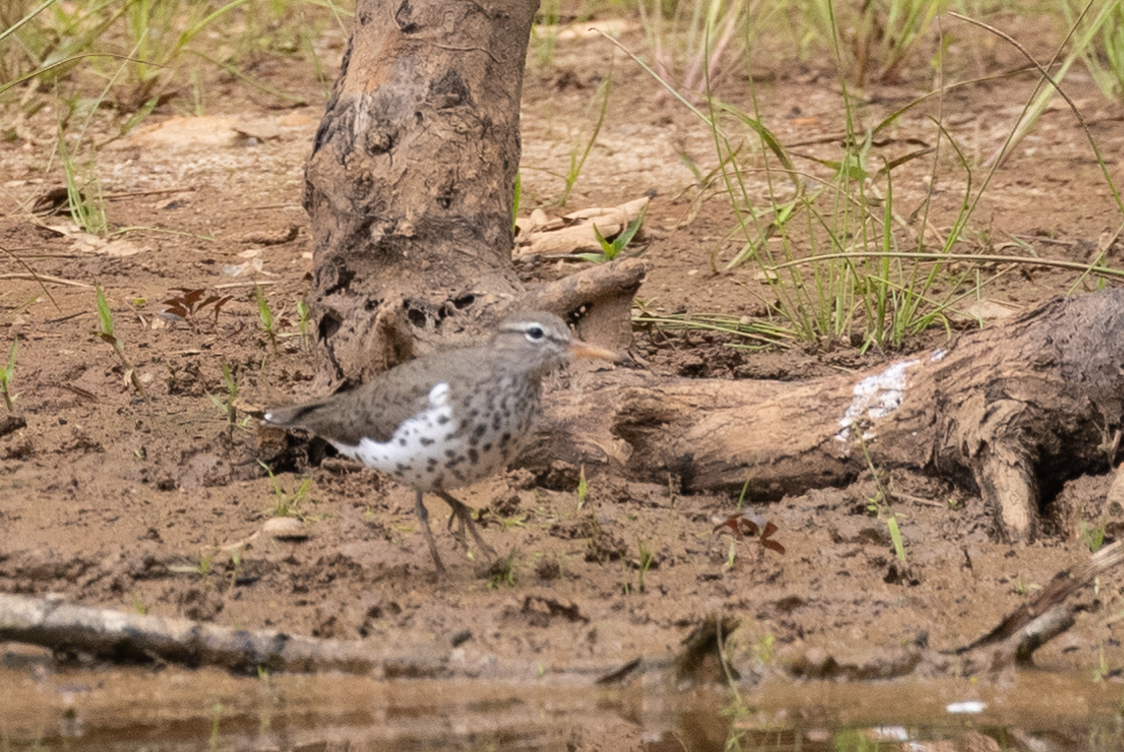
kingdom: Animalia
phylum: Chordata
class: Aves
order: Charadriiformes
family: Scolopacidae
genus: Actitis
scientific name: Actitis macularius
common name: Spotted sandpiper
